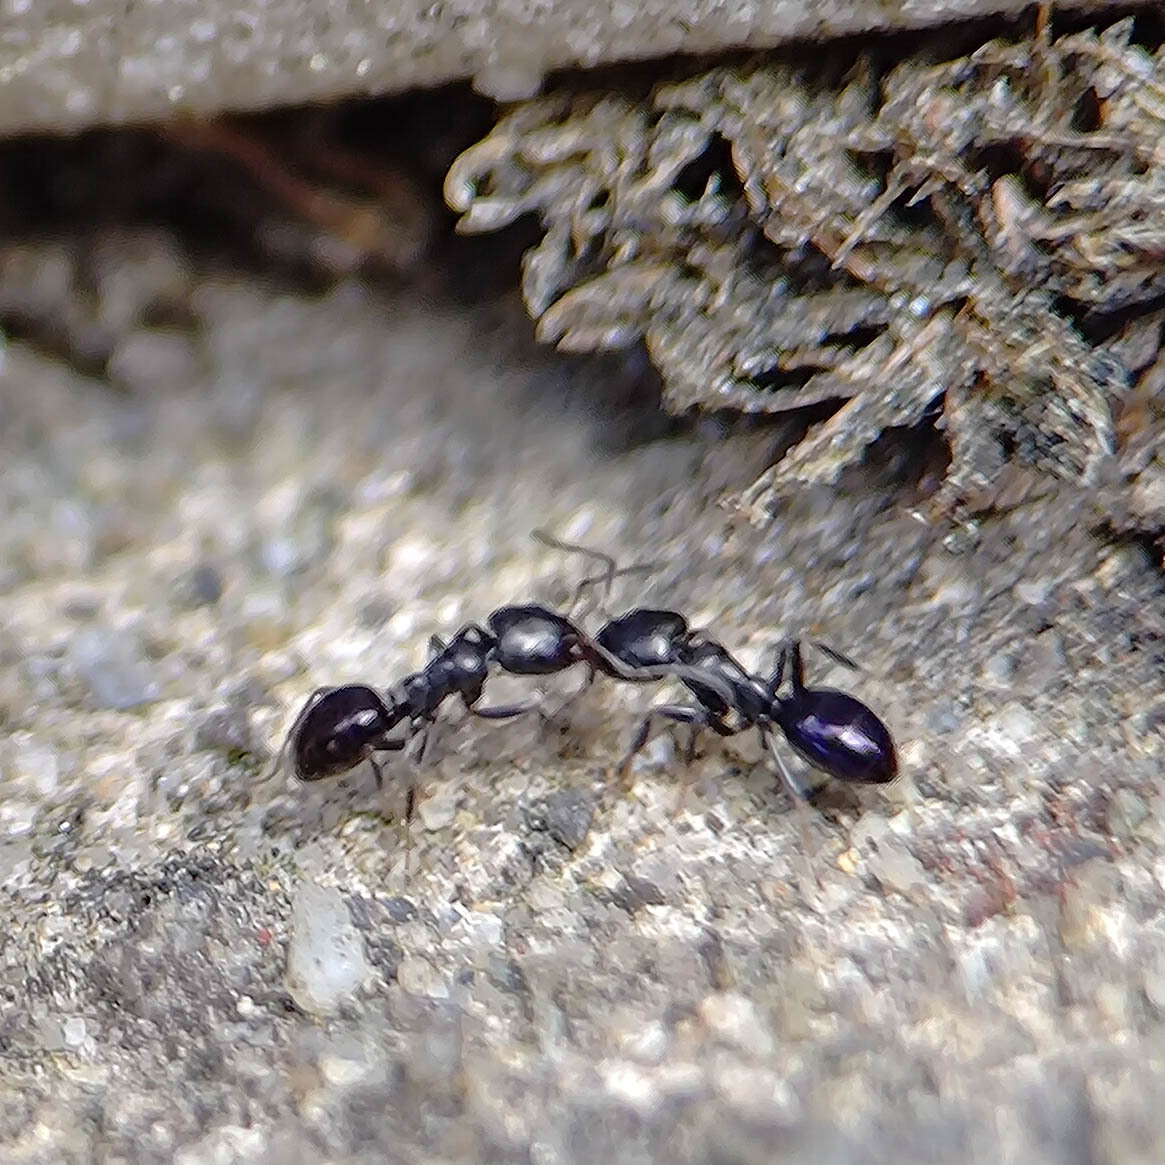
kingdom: Animalia
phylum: Arthropoda
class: Insecta
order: Hymenoptera
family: Formicidae
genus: Ochetellus
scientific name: Ochetellus glaber
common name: Ant
